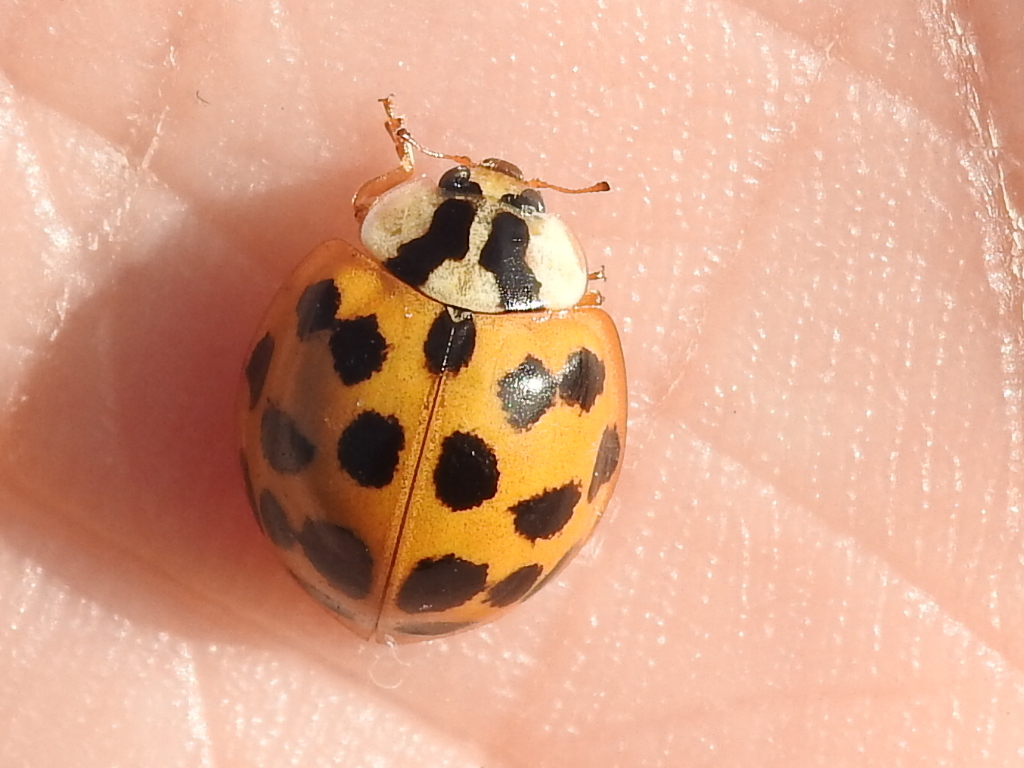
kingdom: Animalia
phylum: Arthropoda
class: Insecta
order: Coleoptera
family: Coccinellidae
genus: Harmonia
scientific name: Harmonia axyridis
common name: Harlequin ladybird
